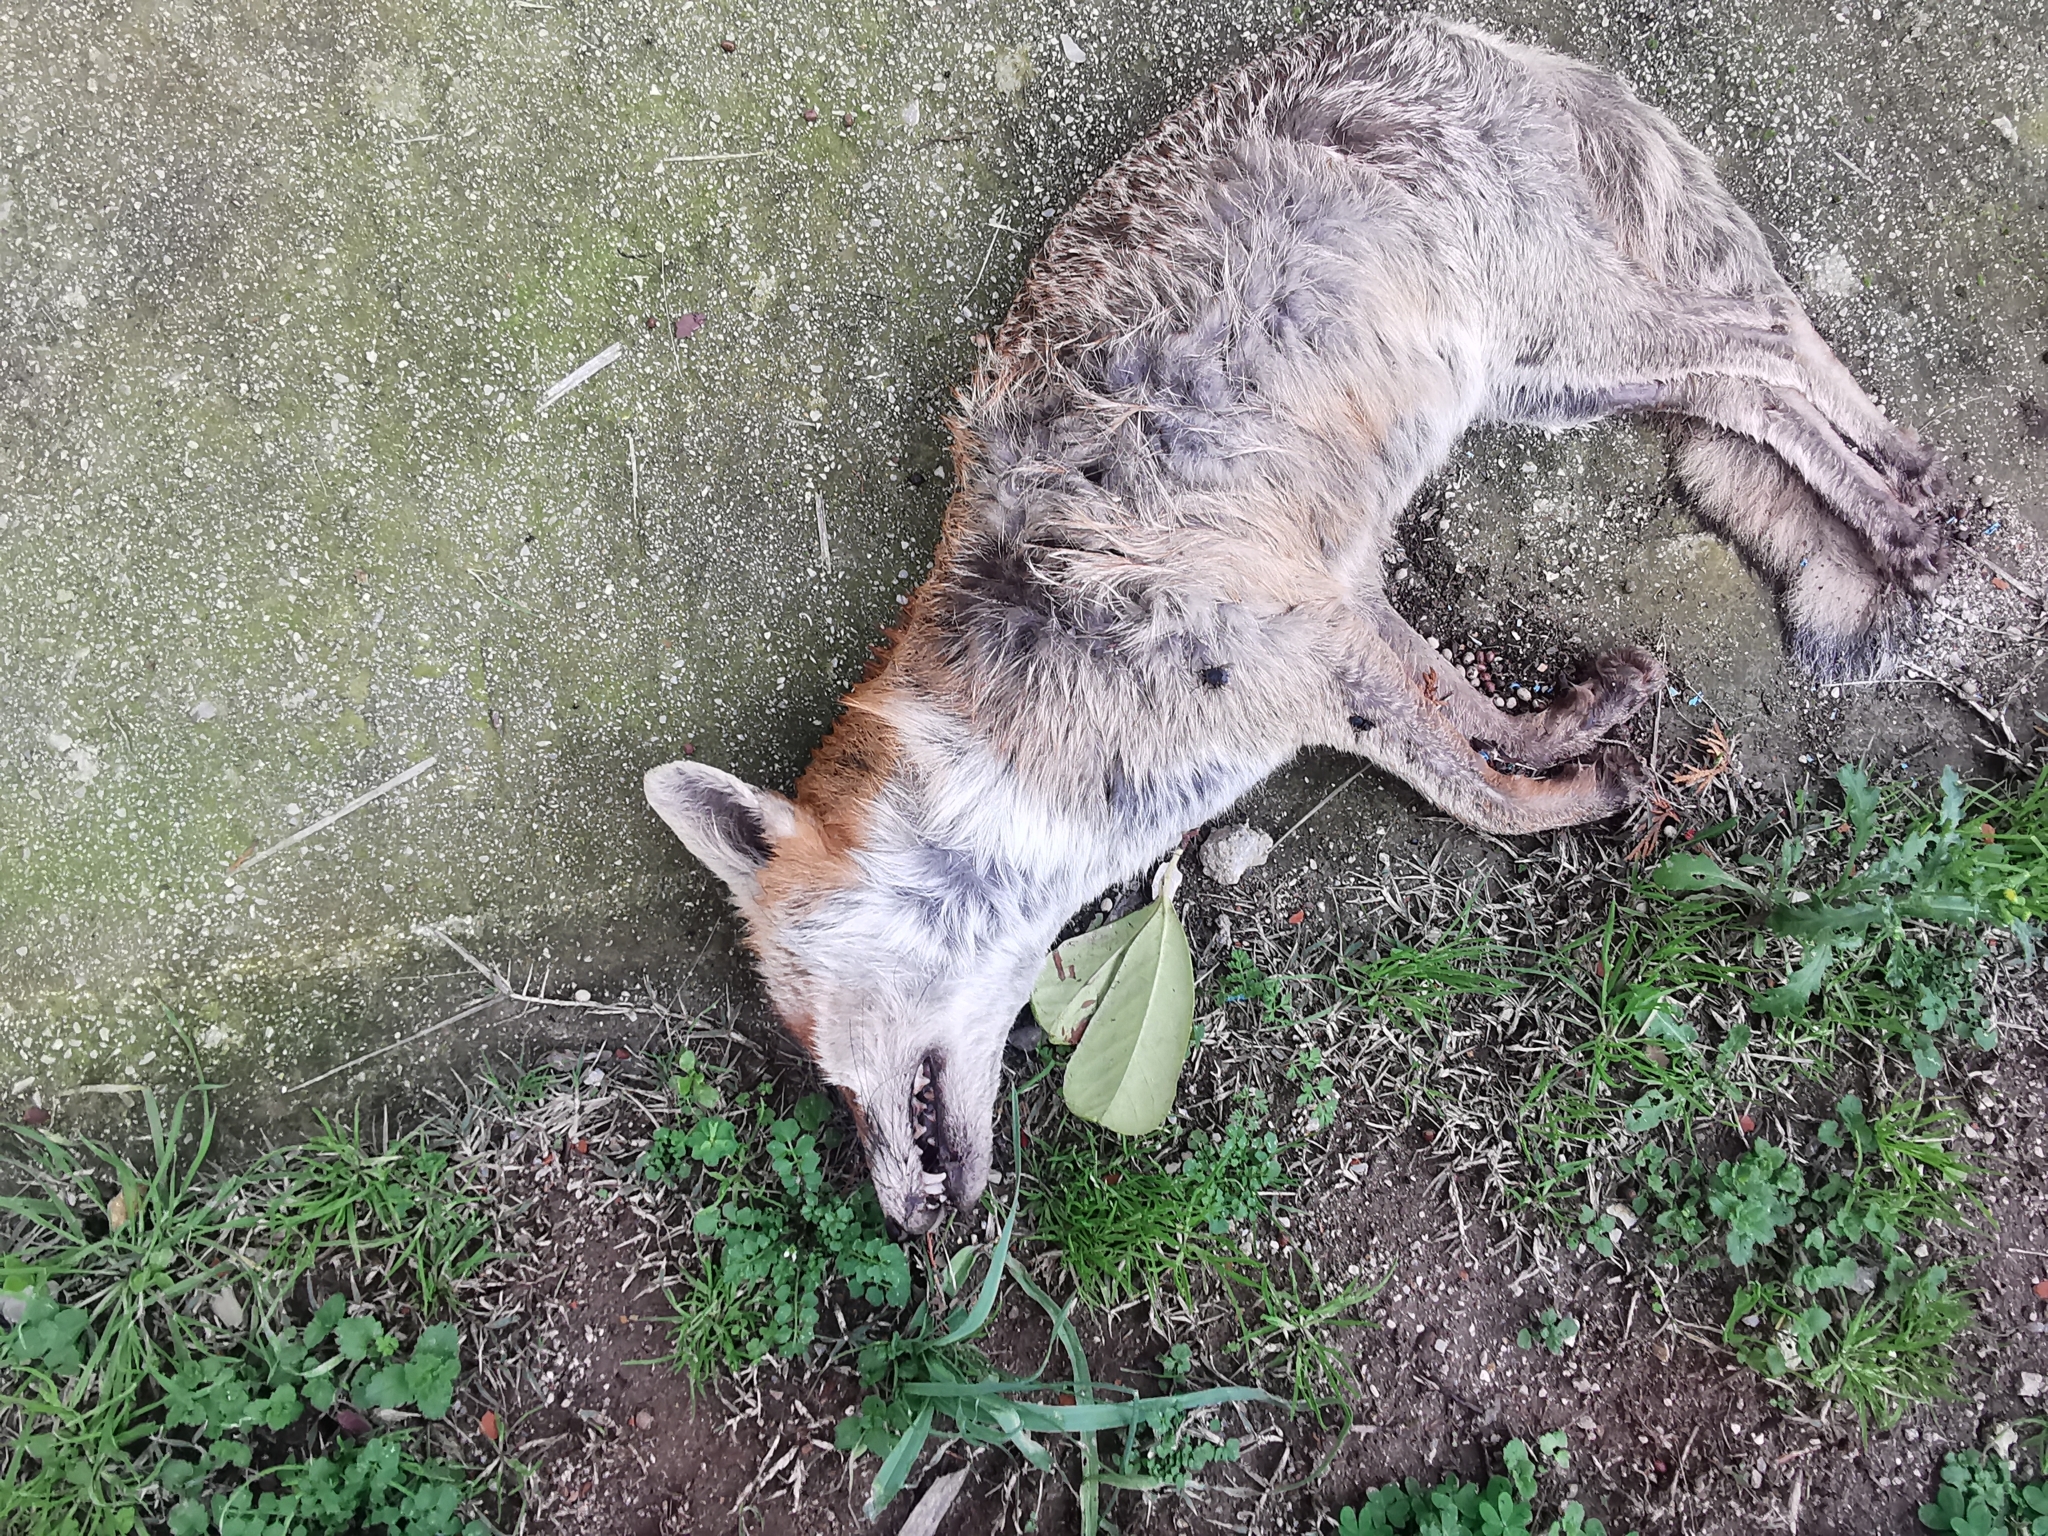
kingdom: Animalia
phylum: Chordata
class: Mammalia
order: Carnivora
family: Canidae
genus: Vulpes
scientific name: Vulpes vulpes
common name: Red fox
